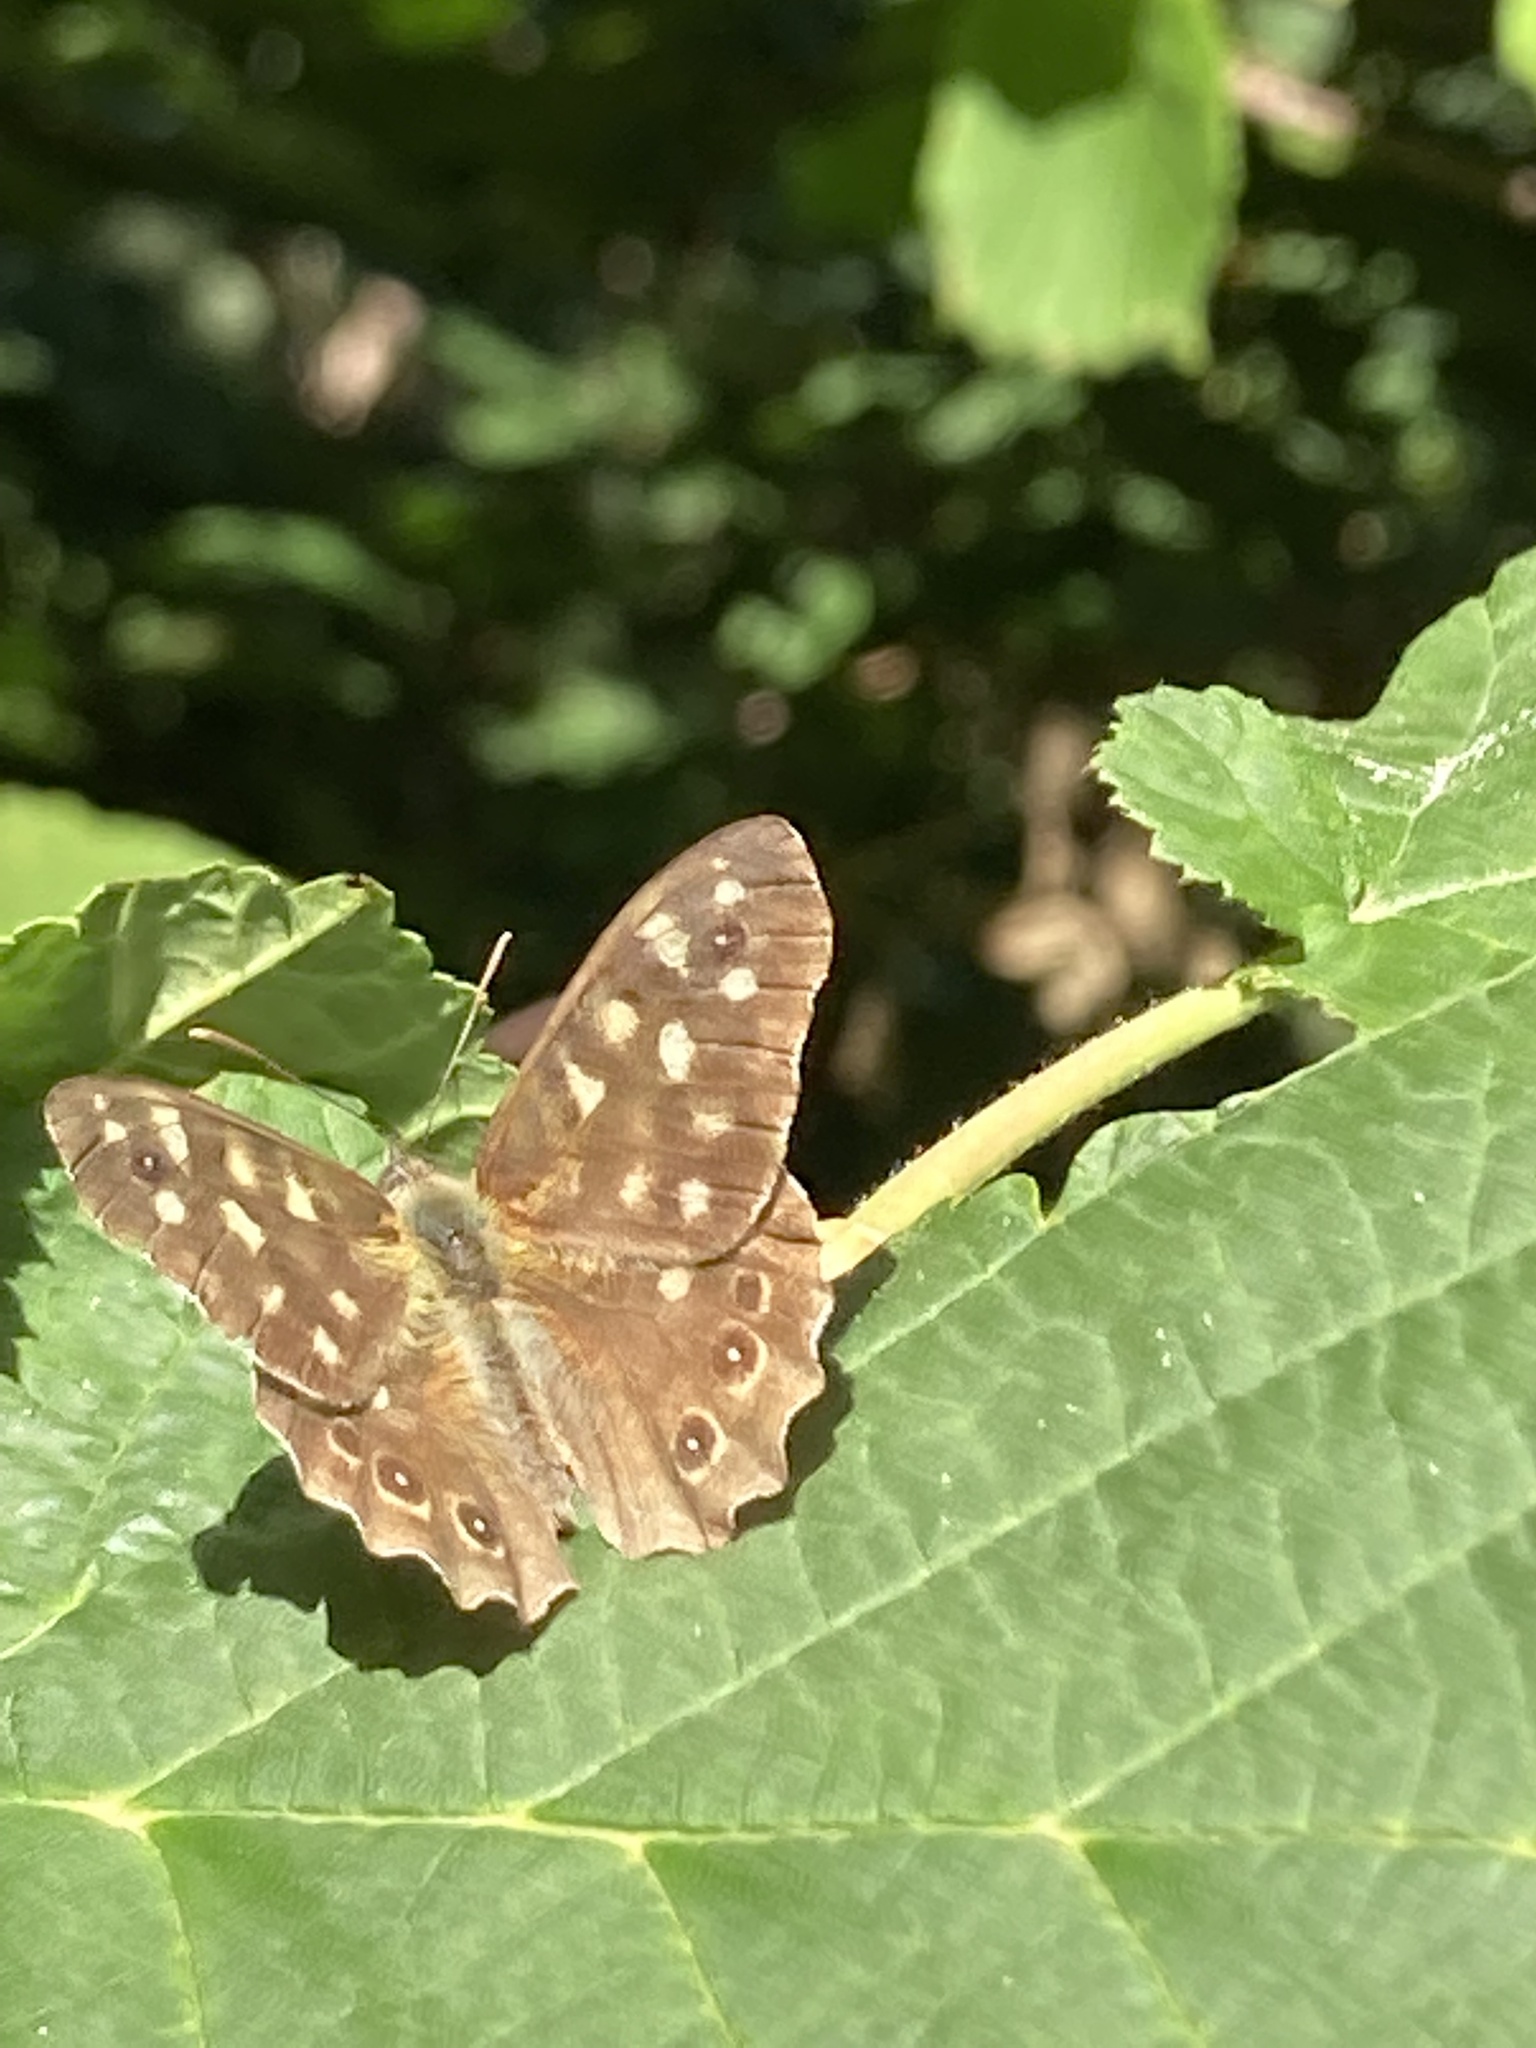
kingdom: Animalia
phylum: Arthropoda
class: Insecta
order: Lepidoptera
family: Nymphalidae
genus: Pararge
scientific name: Pararge aegeria
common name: Speckled wood
